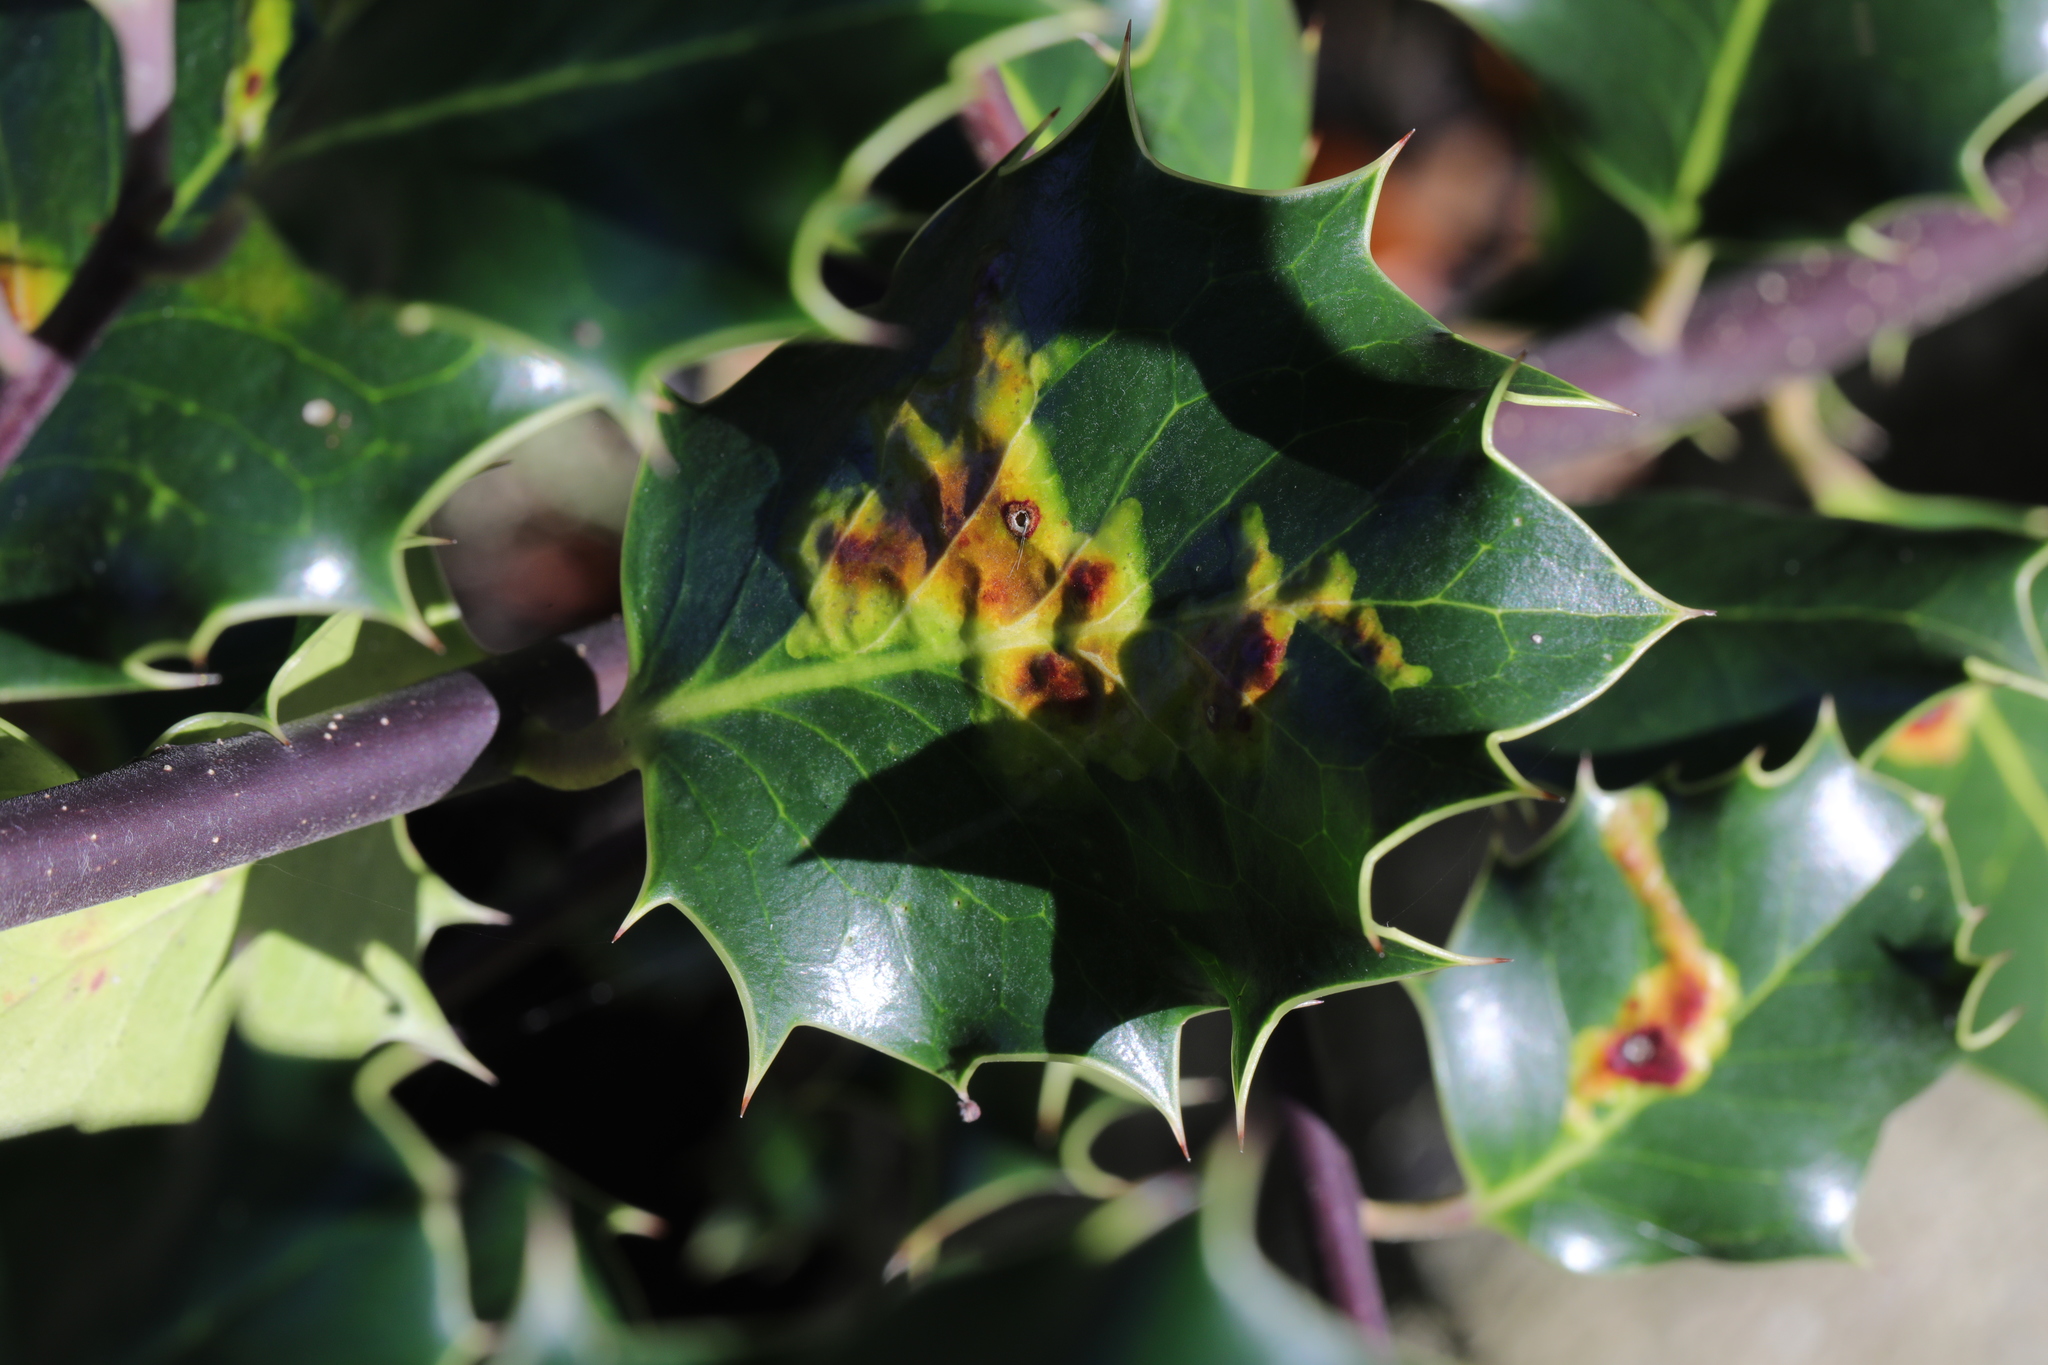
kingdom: Animalia
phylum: Arthropoda
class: Insecta
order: Diptera
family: Agromyzidae
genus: Phytomyza
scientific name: Phytomyza ilicis
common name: Holly leafminer
